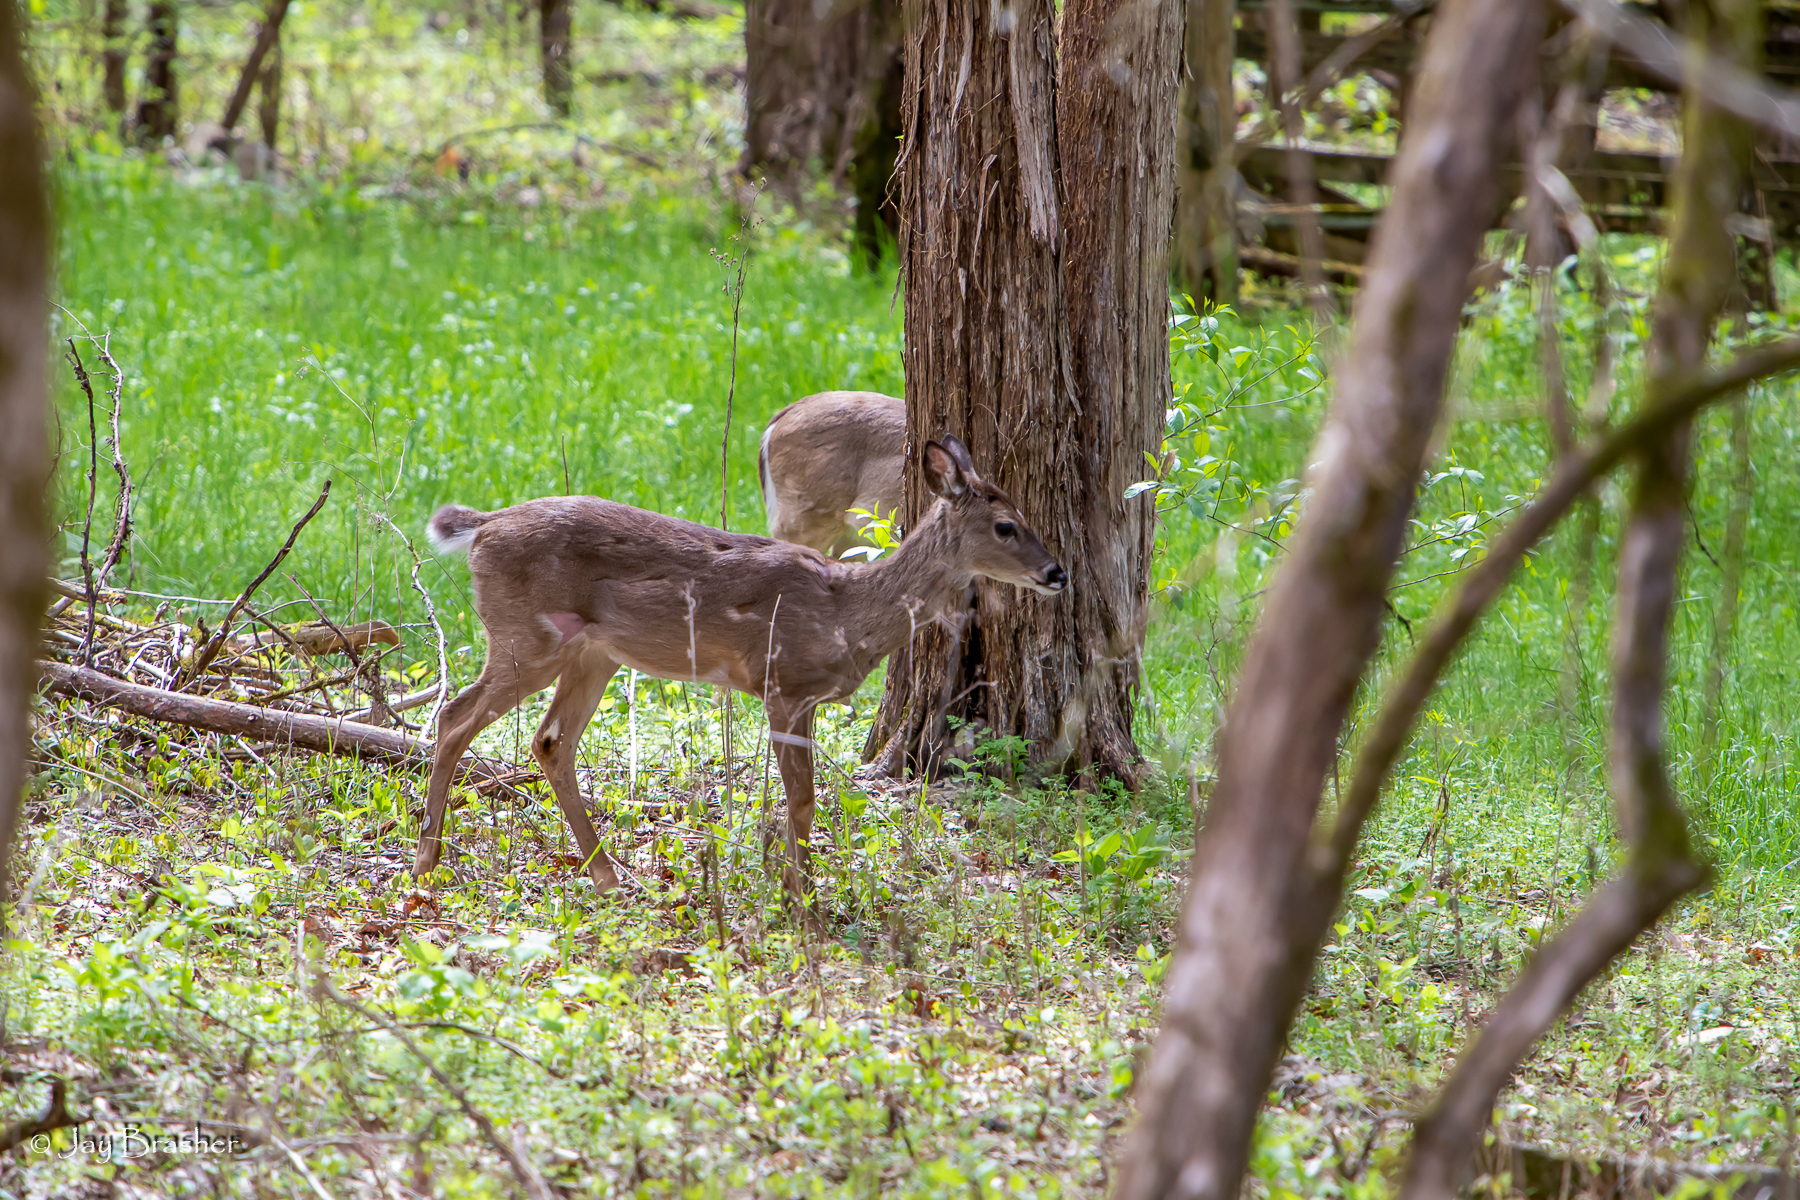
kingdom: Animalia
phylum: Chordata
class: Mammalia
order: Artiodactyla
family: Cervidae
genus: Odocoileus
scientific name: Odocoileus virginianus
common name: White-tailed deer
